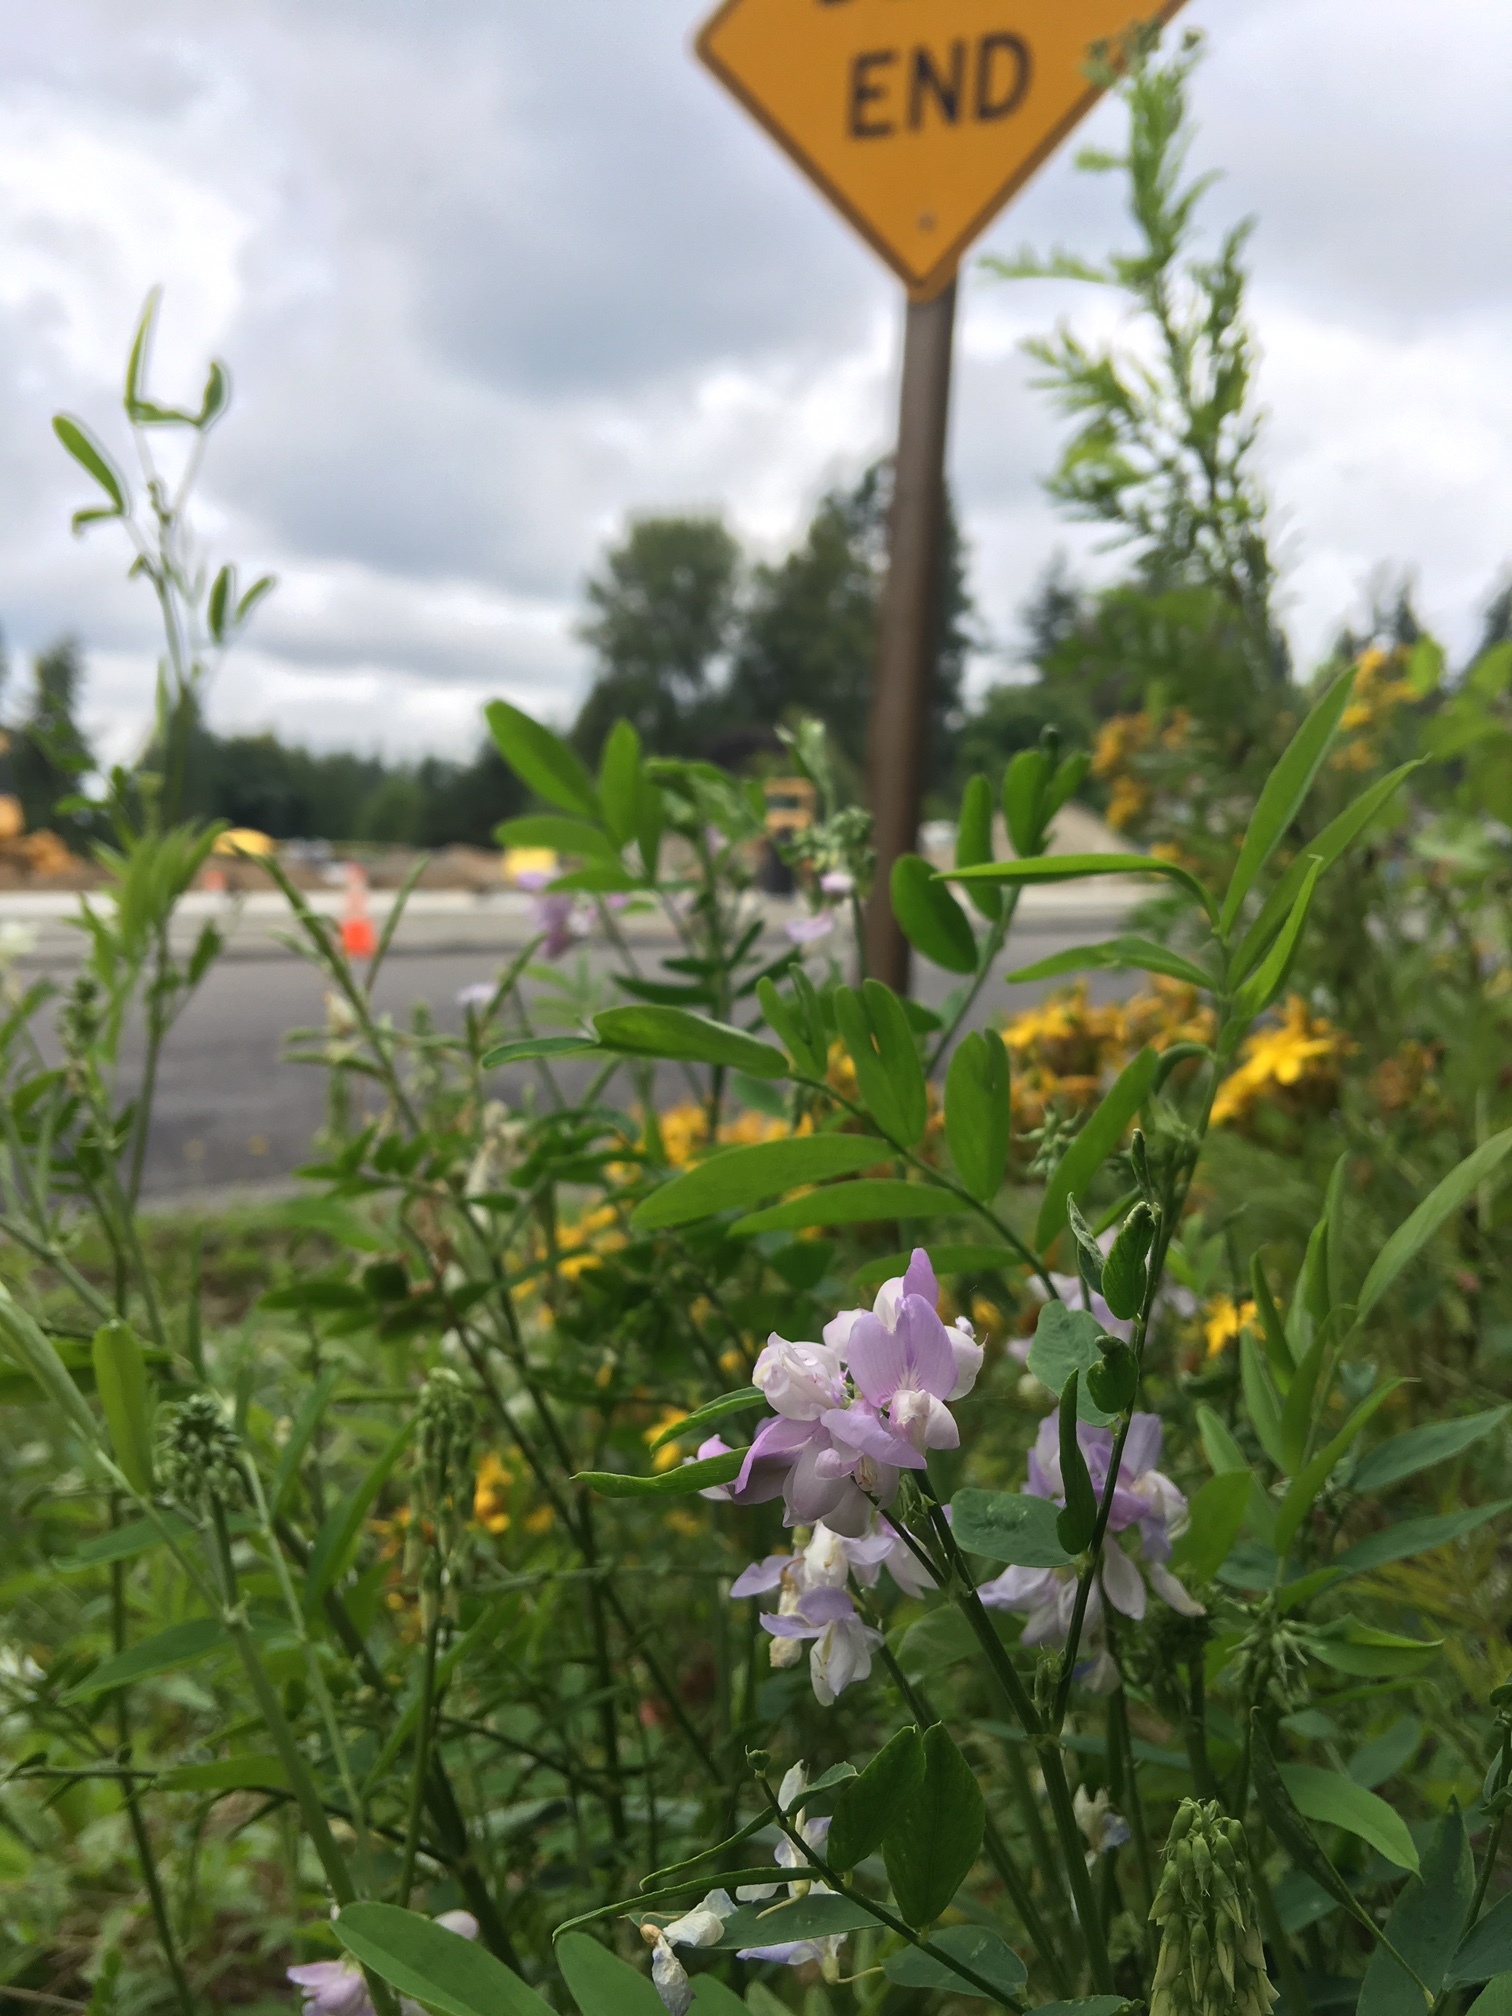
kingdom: Plantae
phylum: Tracheophyta
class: Magnoliopsida
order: Fabales
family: Fabaceae
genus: Galega
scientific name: Galega officinalis
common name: Goat's-rue
